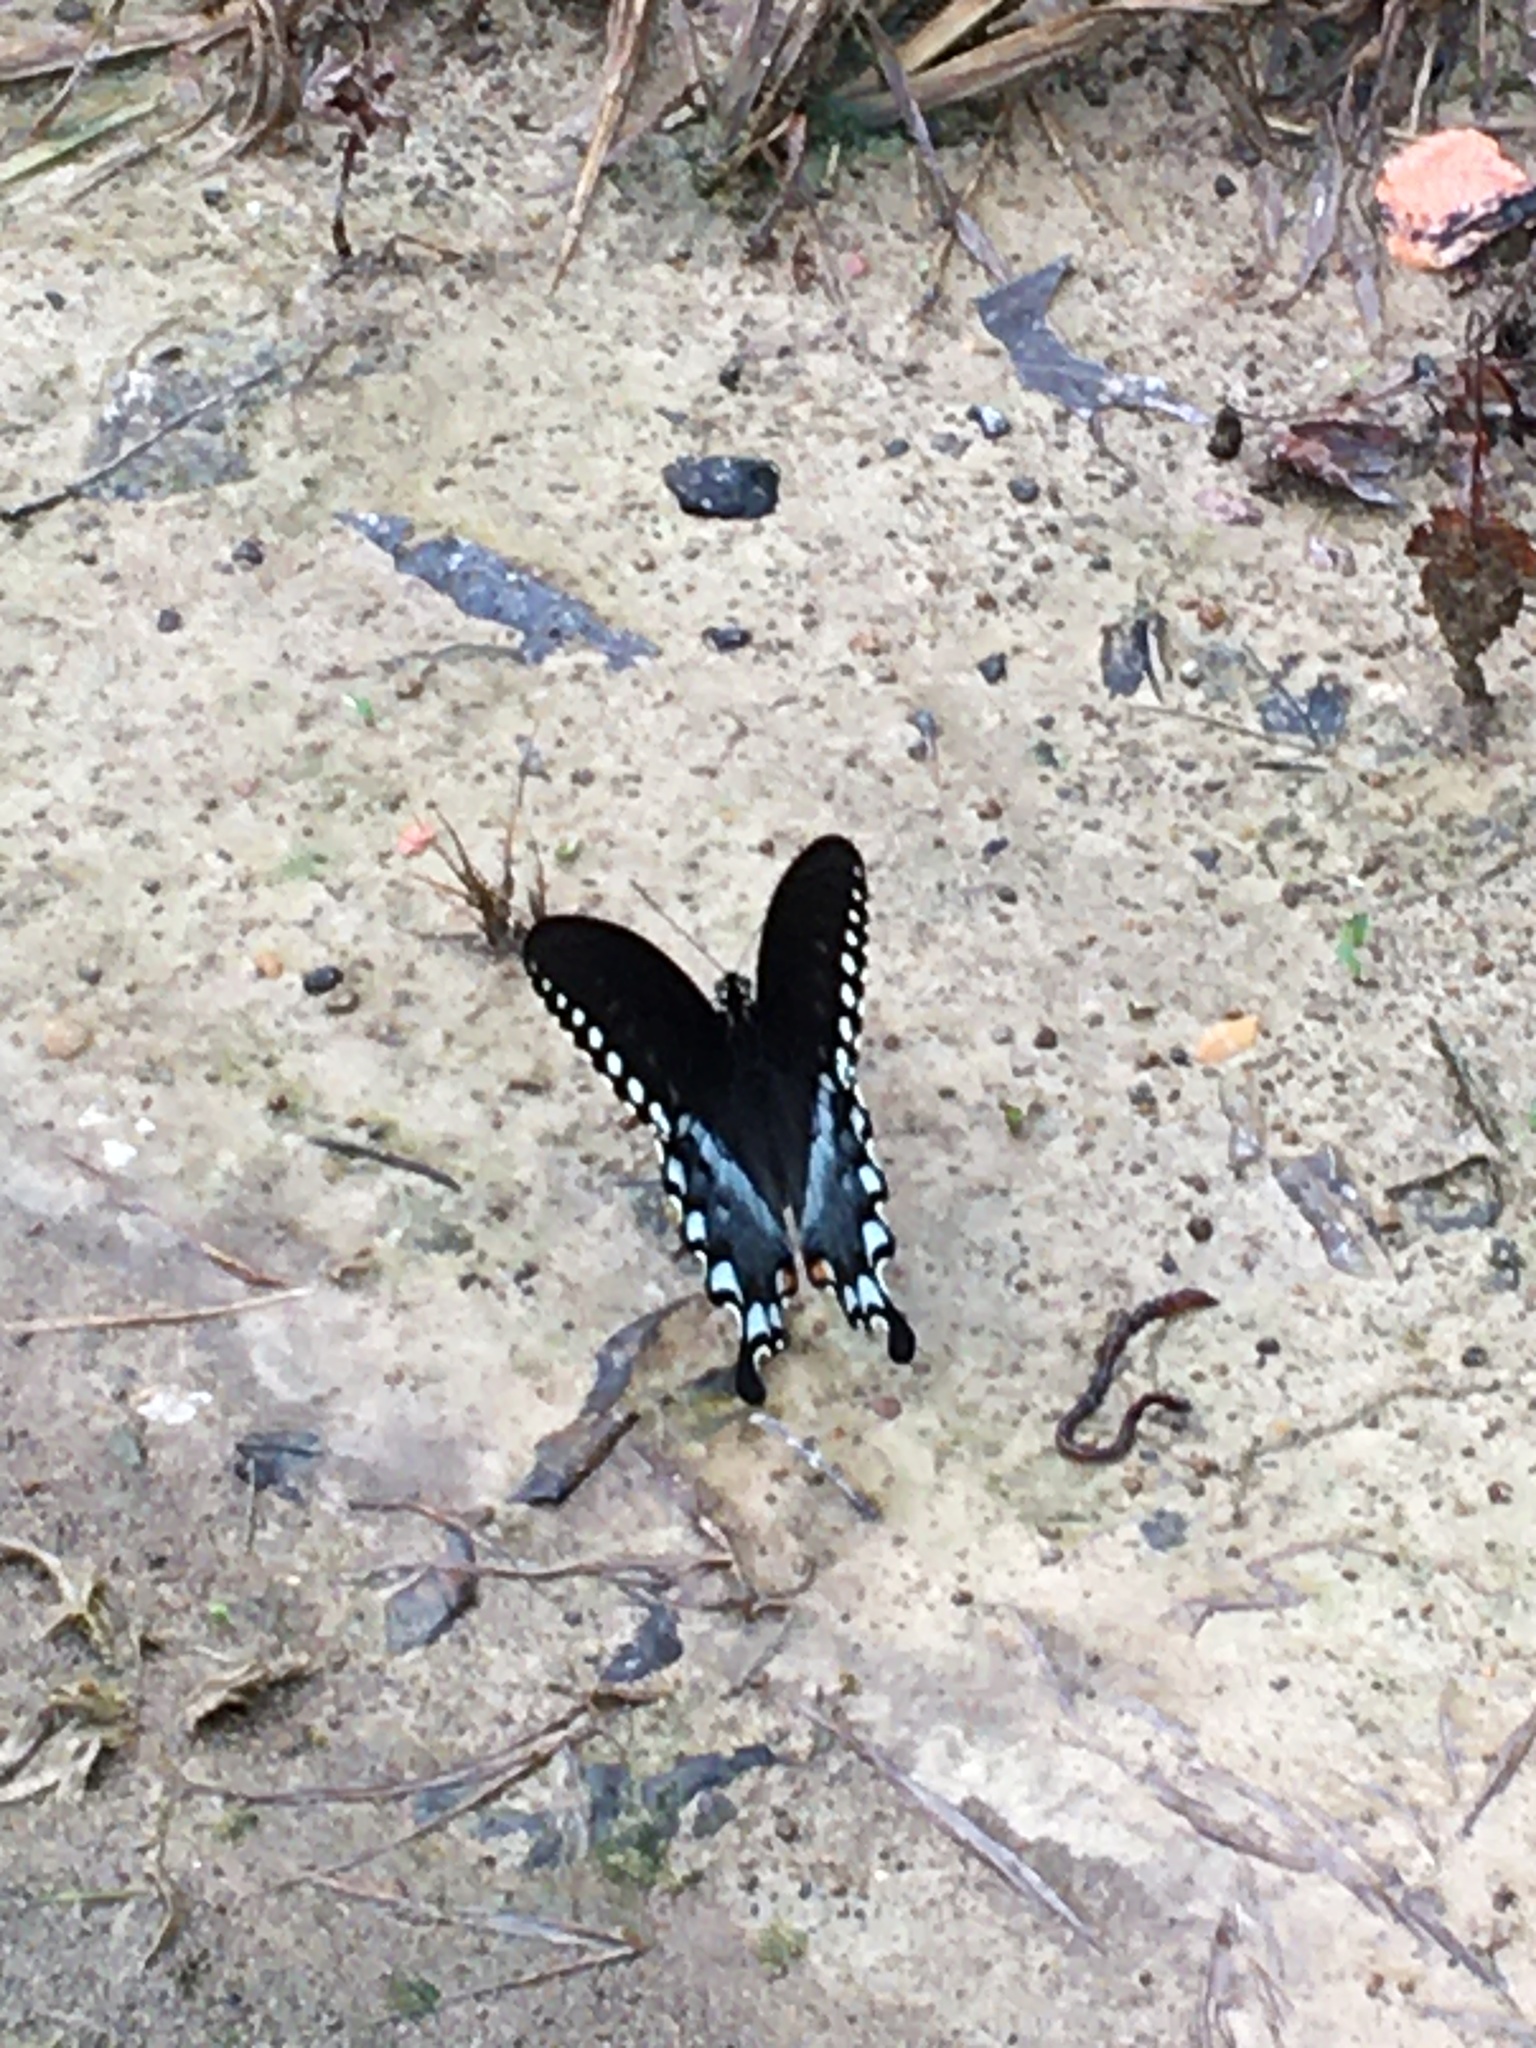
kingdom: Animalia
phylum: Arthropoda
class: Insecta
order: Lepidoptera
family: Papilionidae
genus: Papilio
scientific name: Papilio troilus
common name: Spicebush swallowtail
